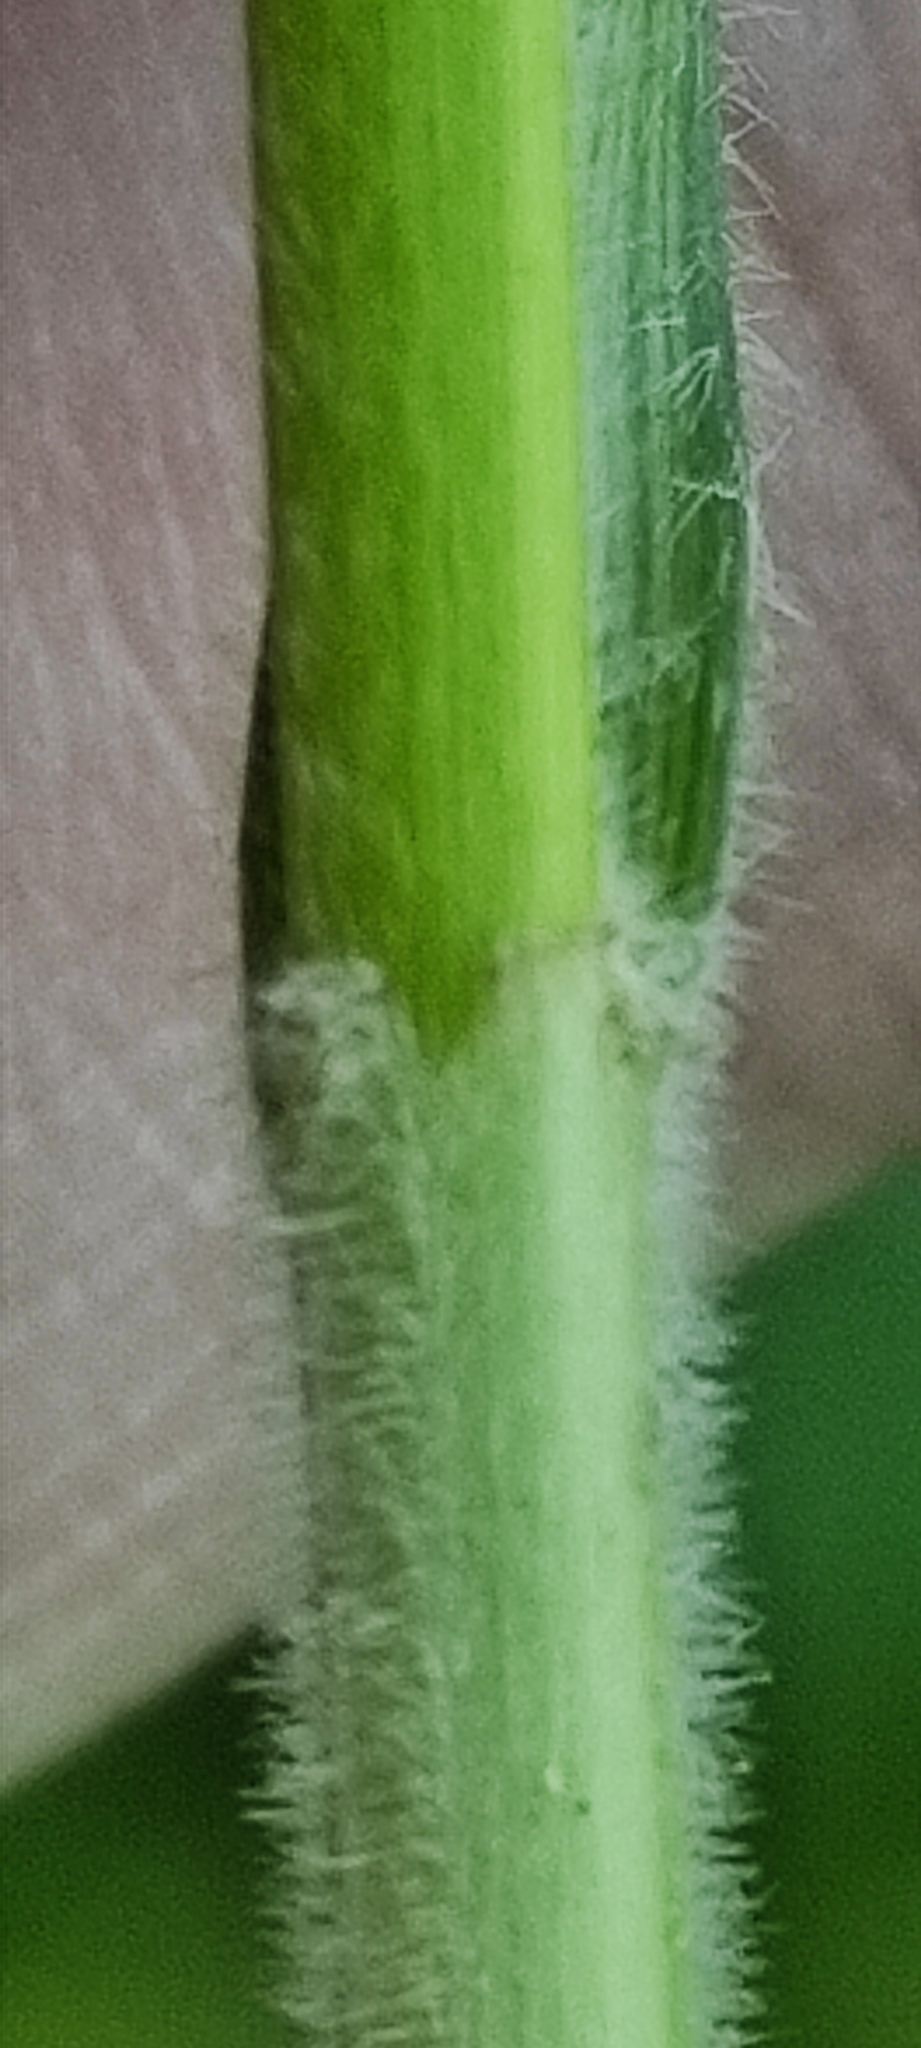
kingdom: Plantae
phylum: Tracheophyta
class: Liliopsida
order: Poales
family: Cyperaceae
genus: Carex
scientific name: Carex hirta
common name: Hairy sedge
